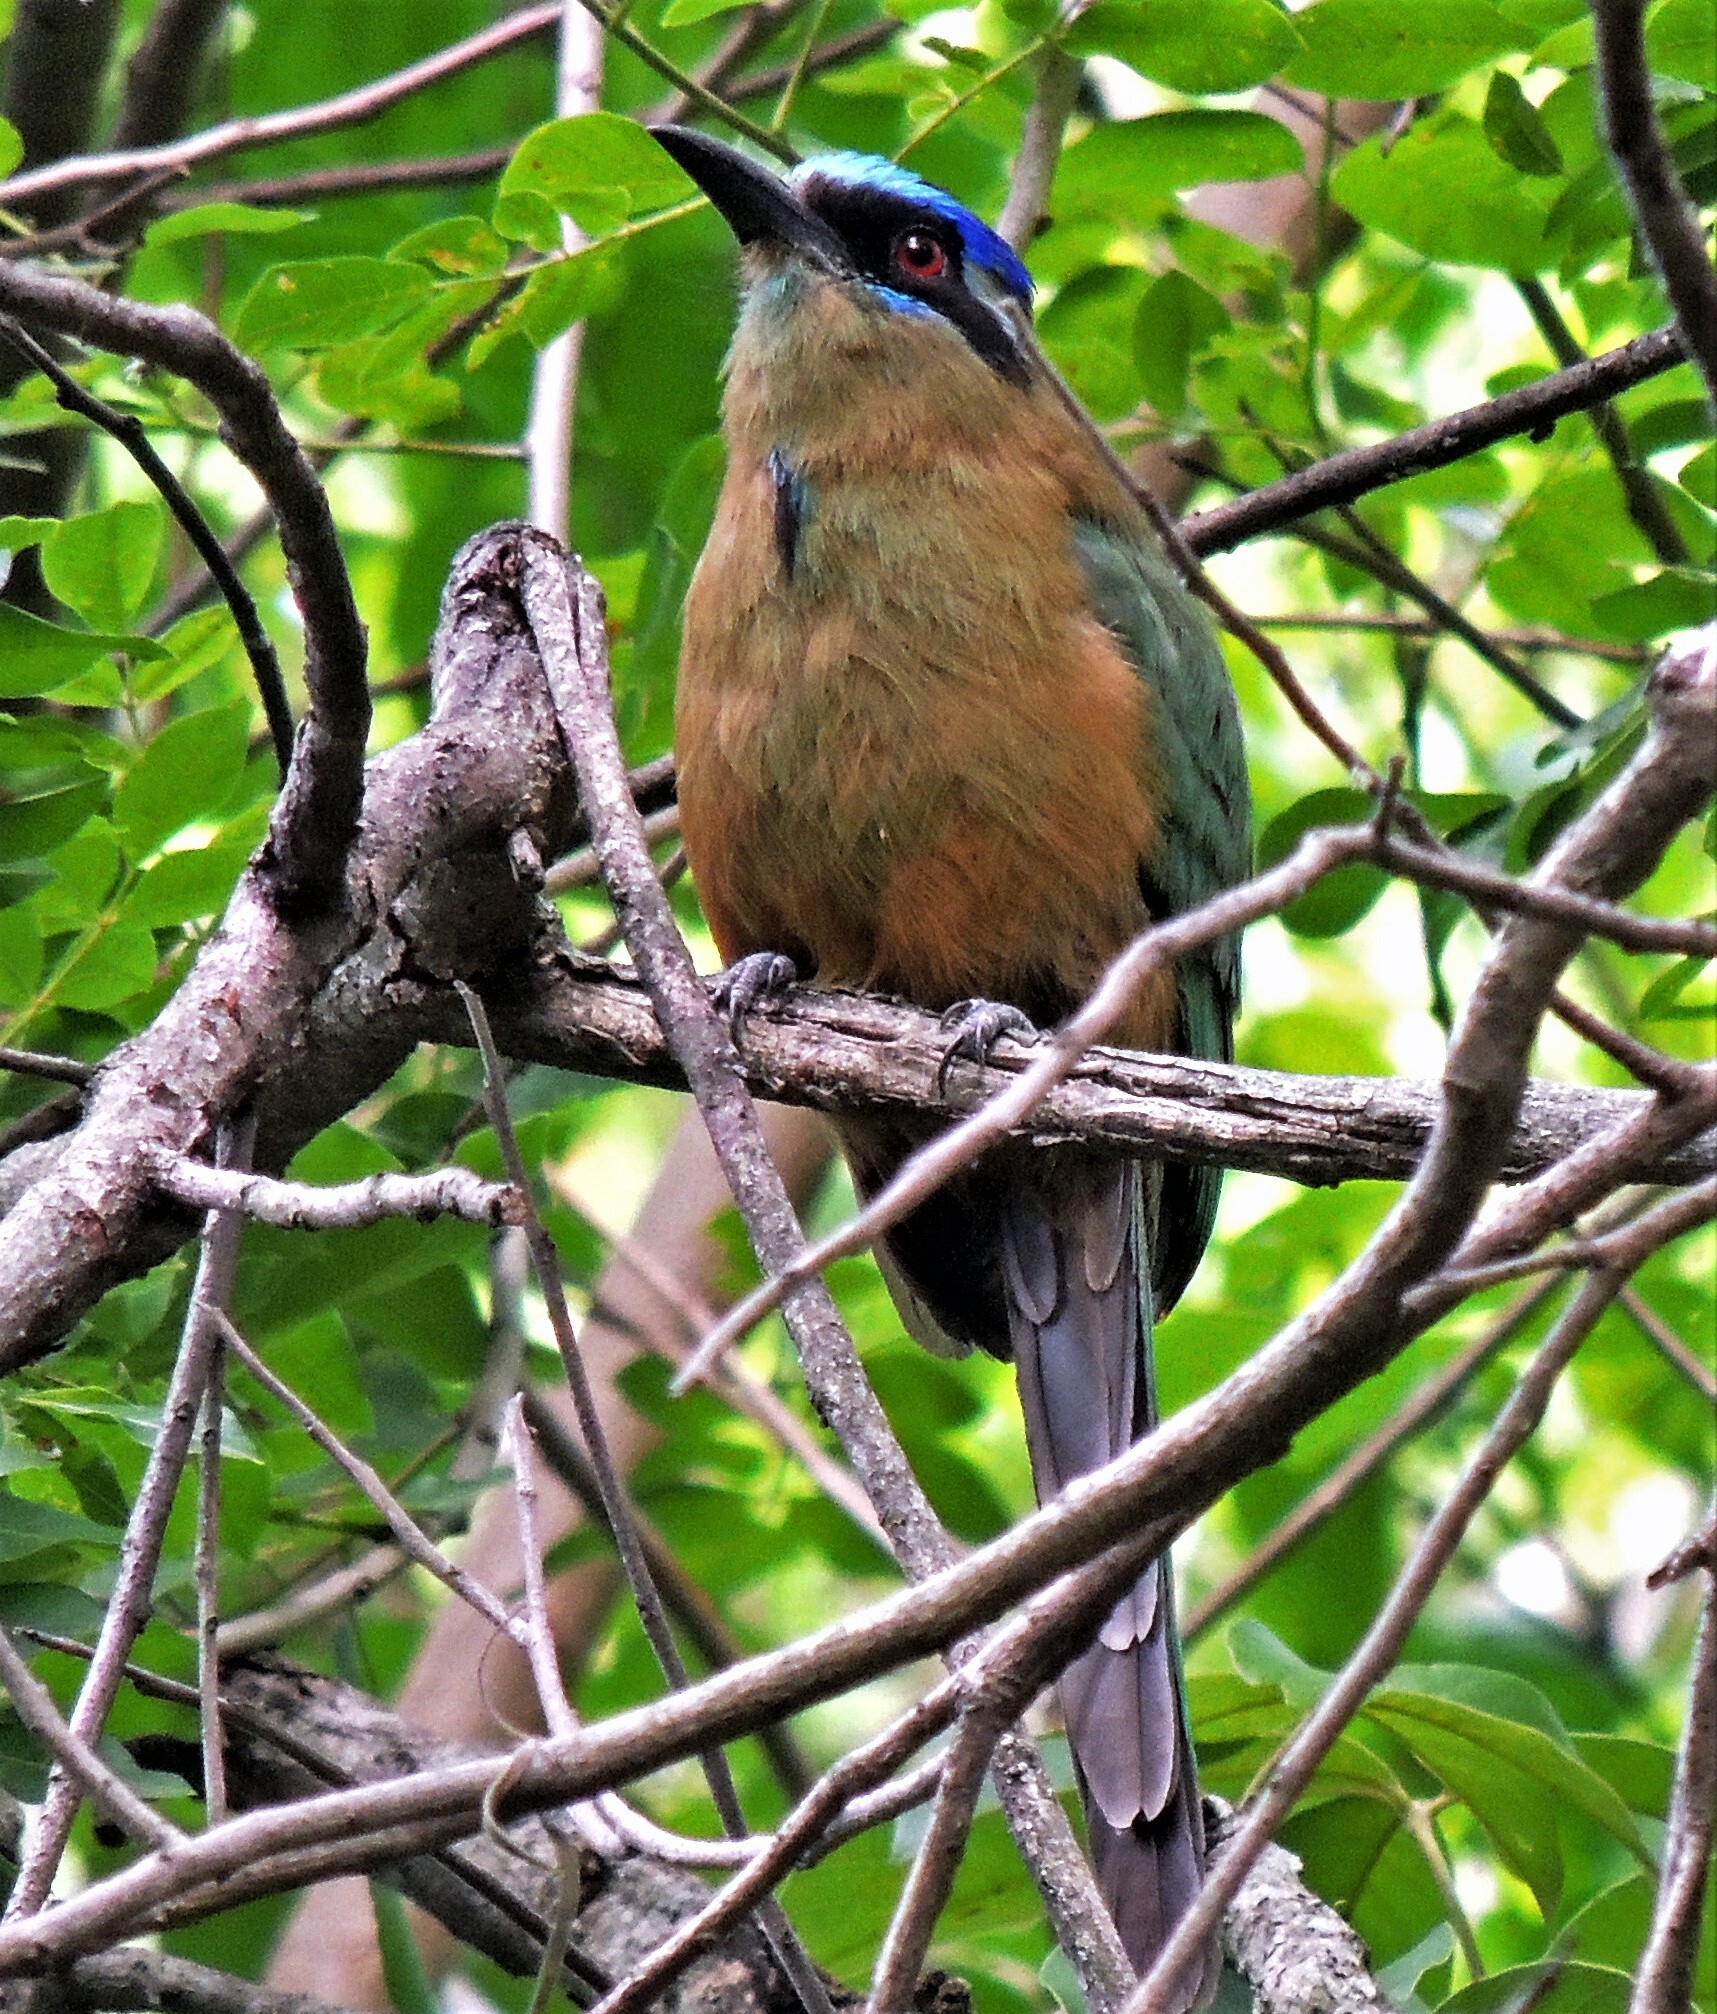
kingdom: Animalia
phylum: Chordata
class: Aves
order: Coraciiformes
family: Momotidae
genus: Momotus
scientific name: Momotus momota
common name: Amazonian motmot
